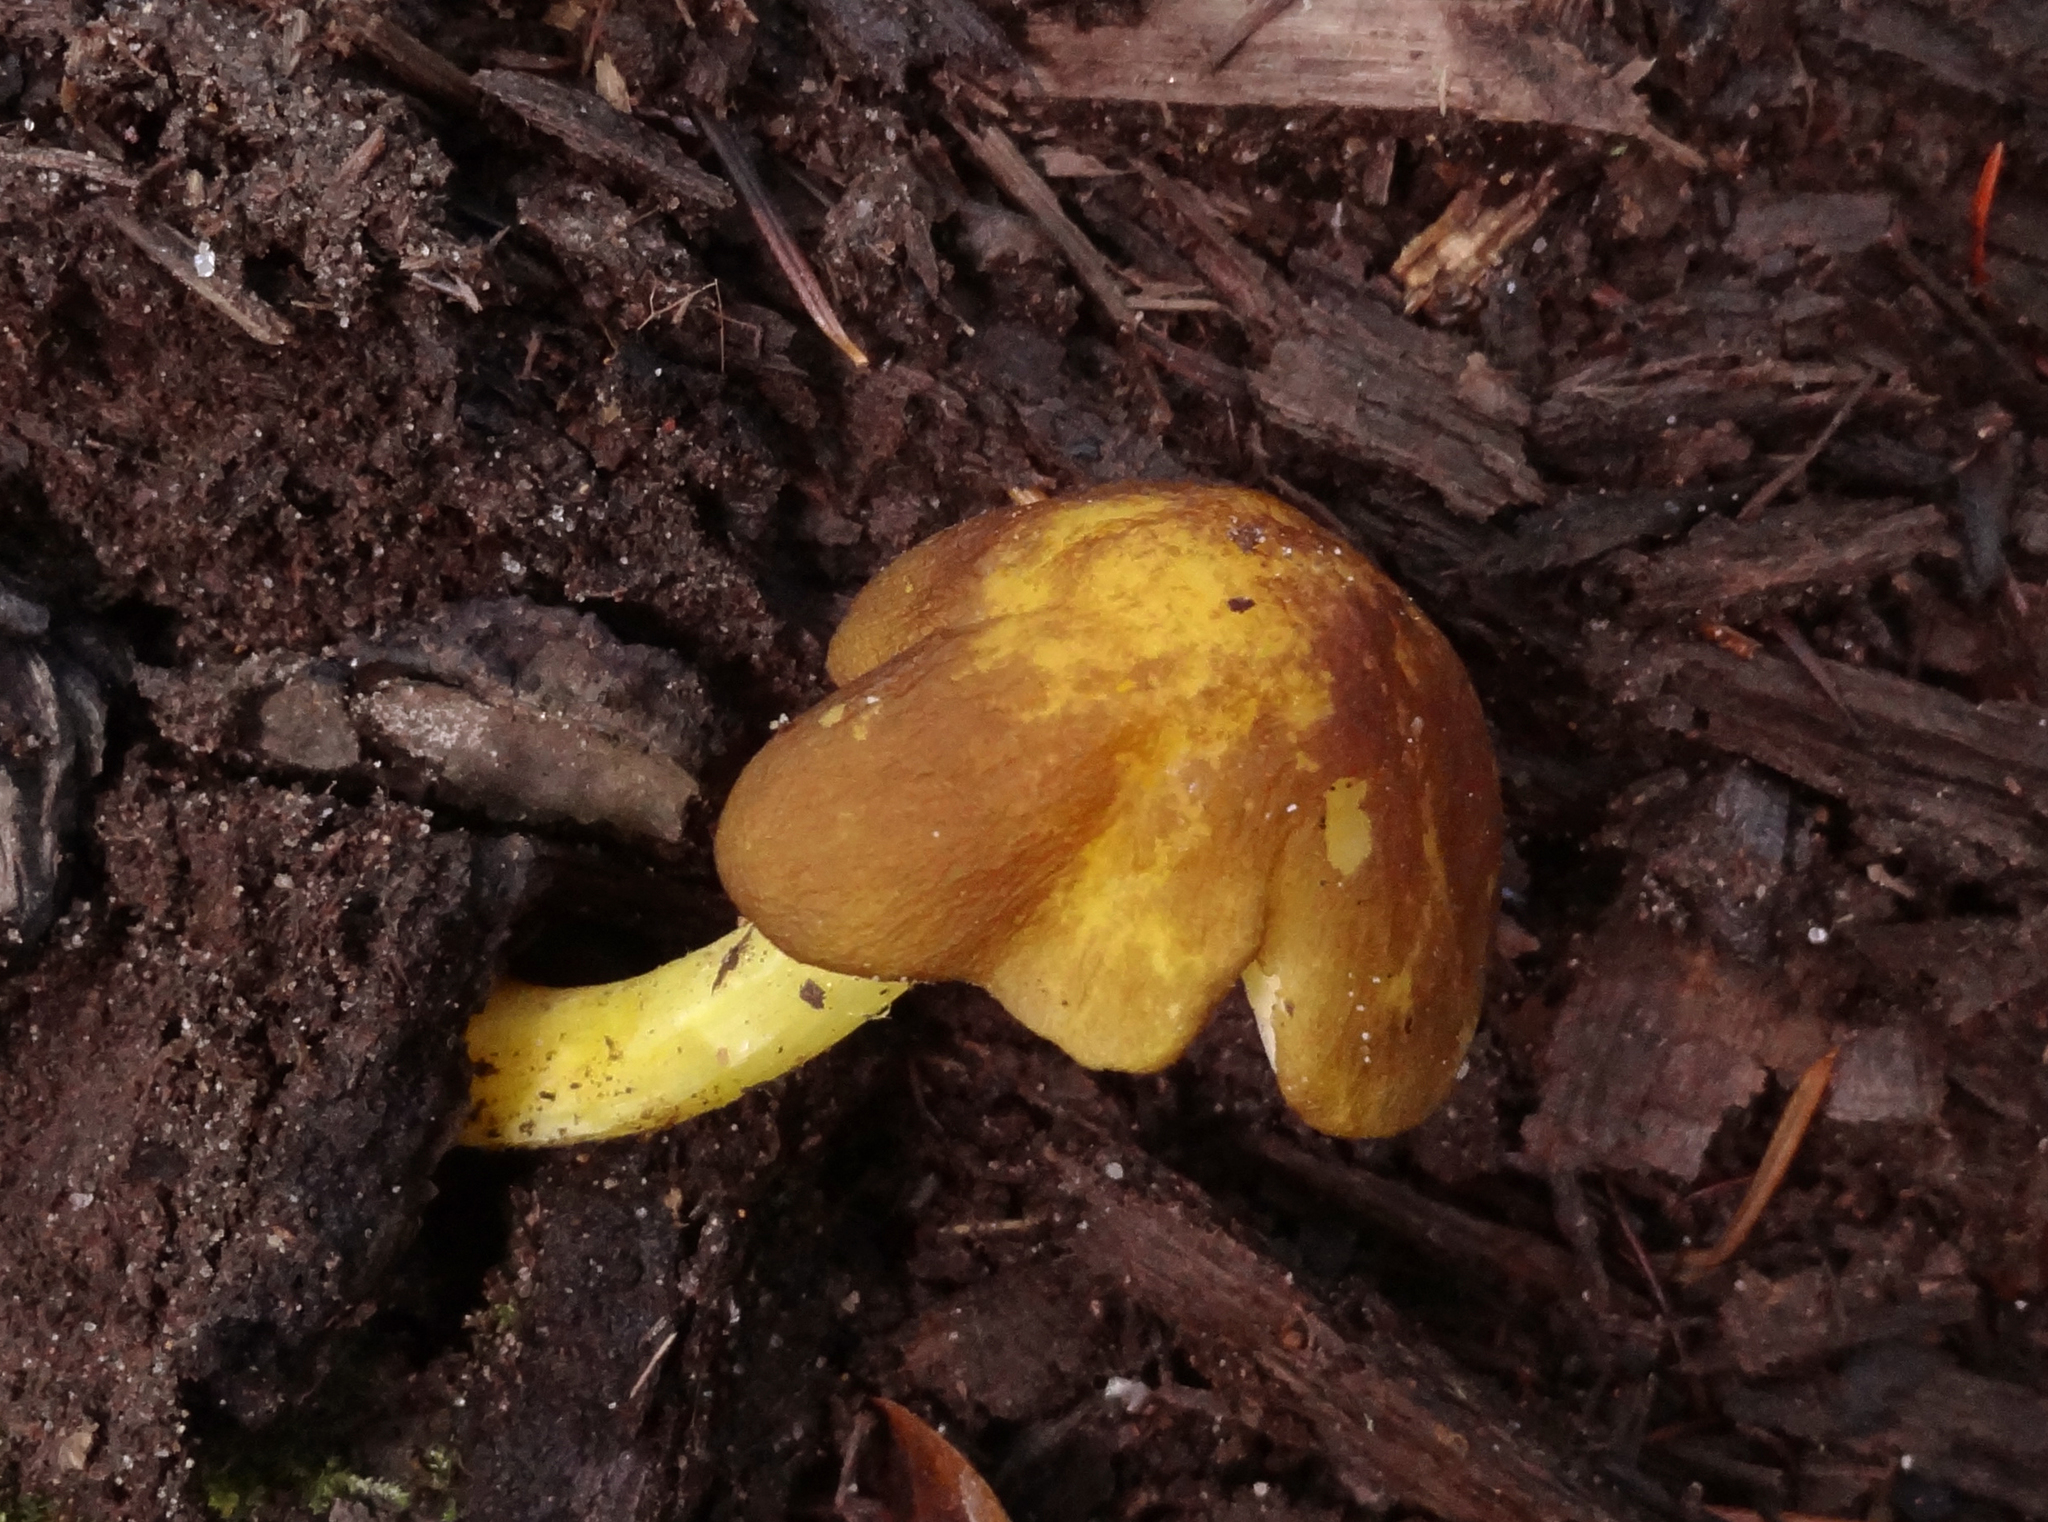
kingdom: Fungi
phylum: Basidiomycota
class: Agaricomycetes
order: Agaricales
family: Pluteaceae
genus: Pluteus
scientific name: Pluteus romellii
